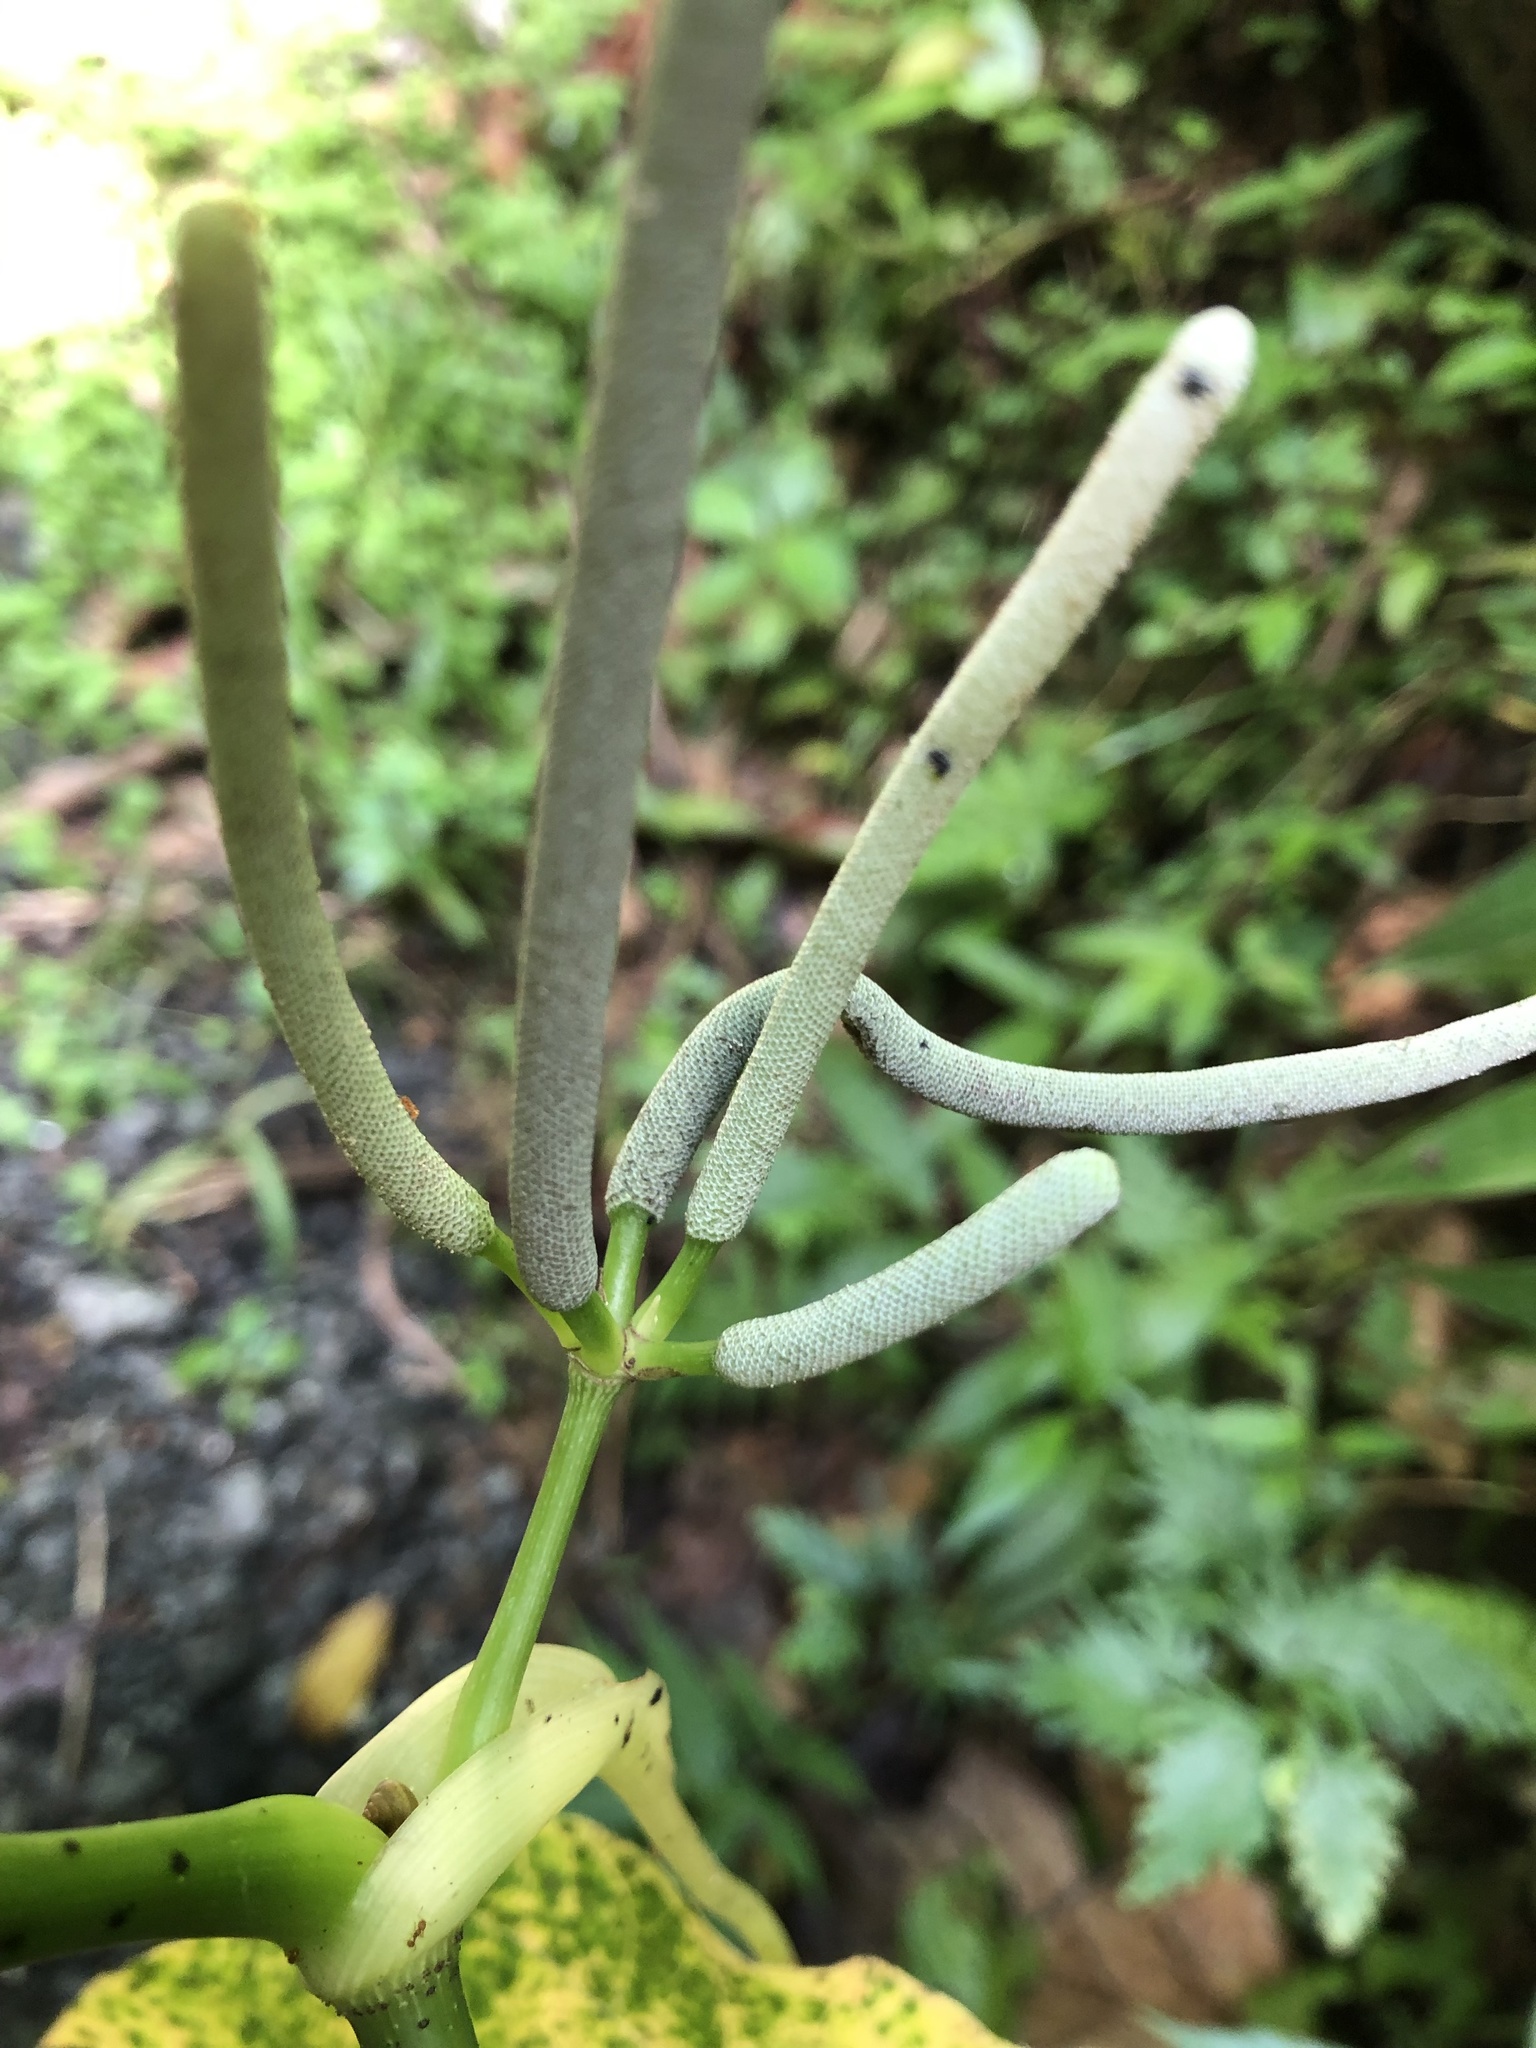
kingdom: Plantae
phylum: Tracheophyta
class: Magnoliopsida
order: Piperales
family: Piperaceae
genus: Piper
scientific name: Piper peltatum
